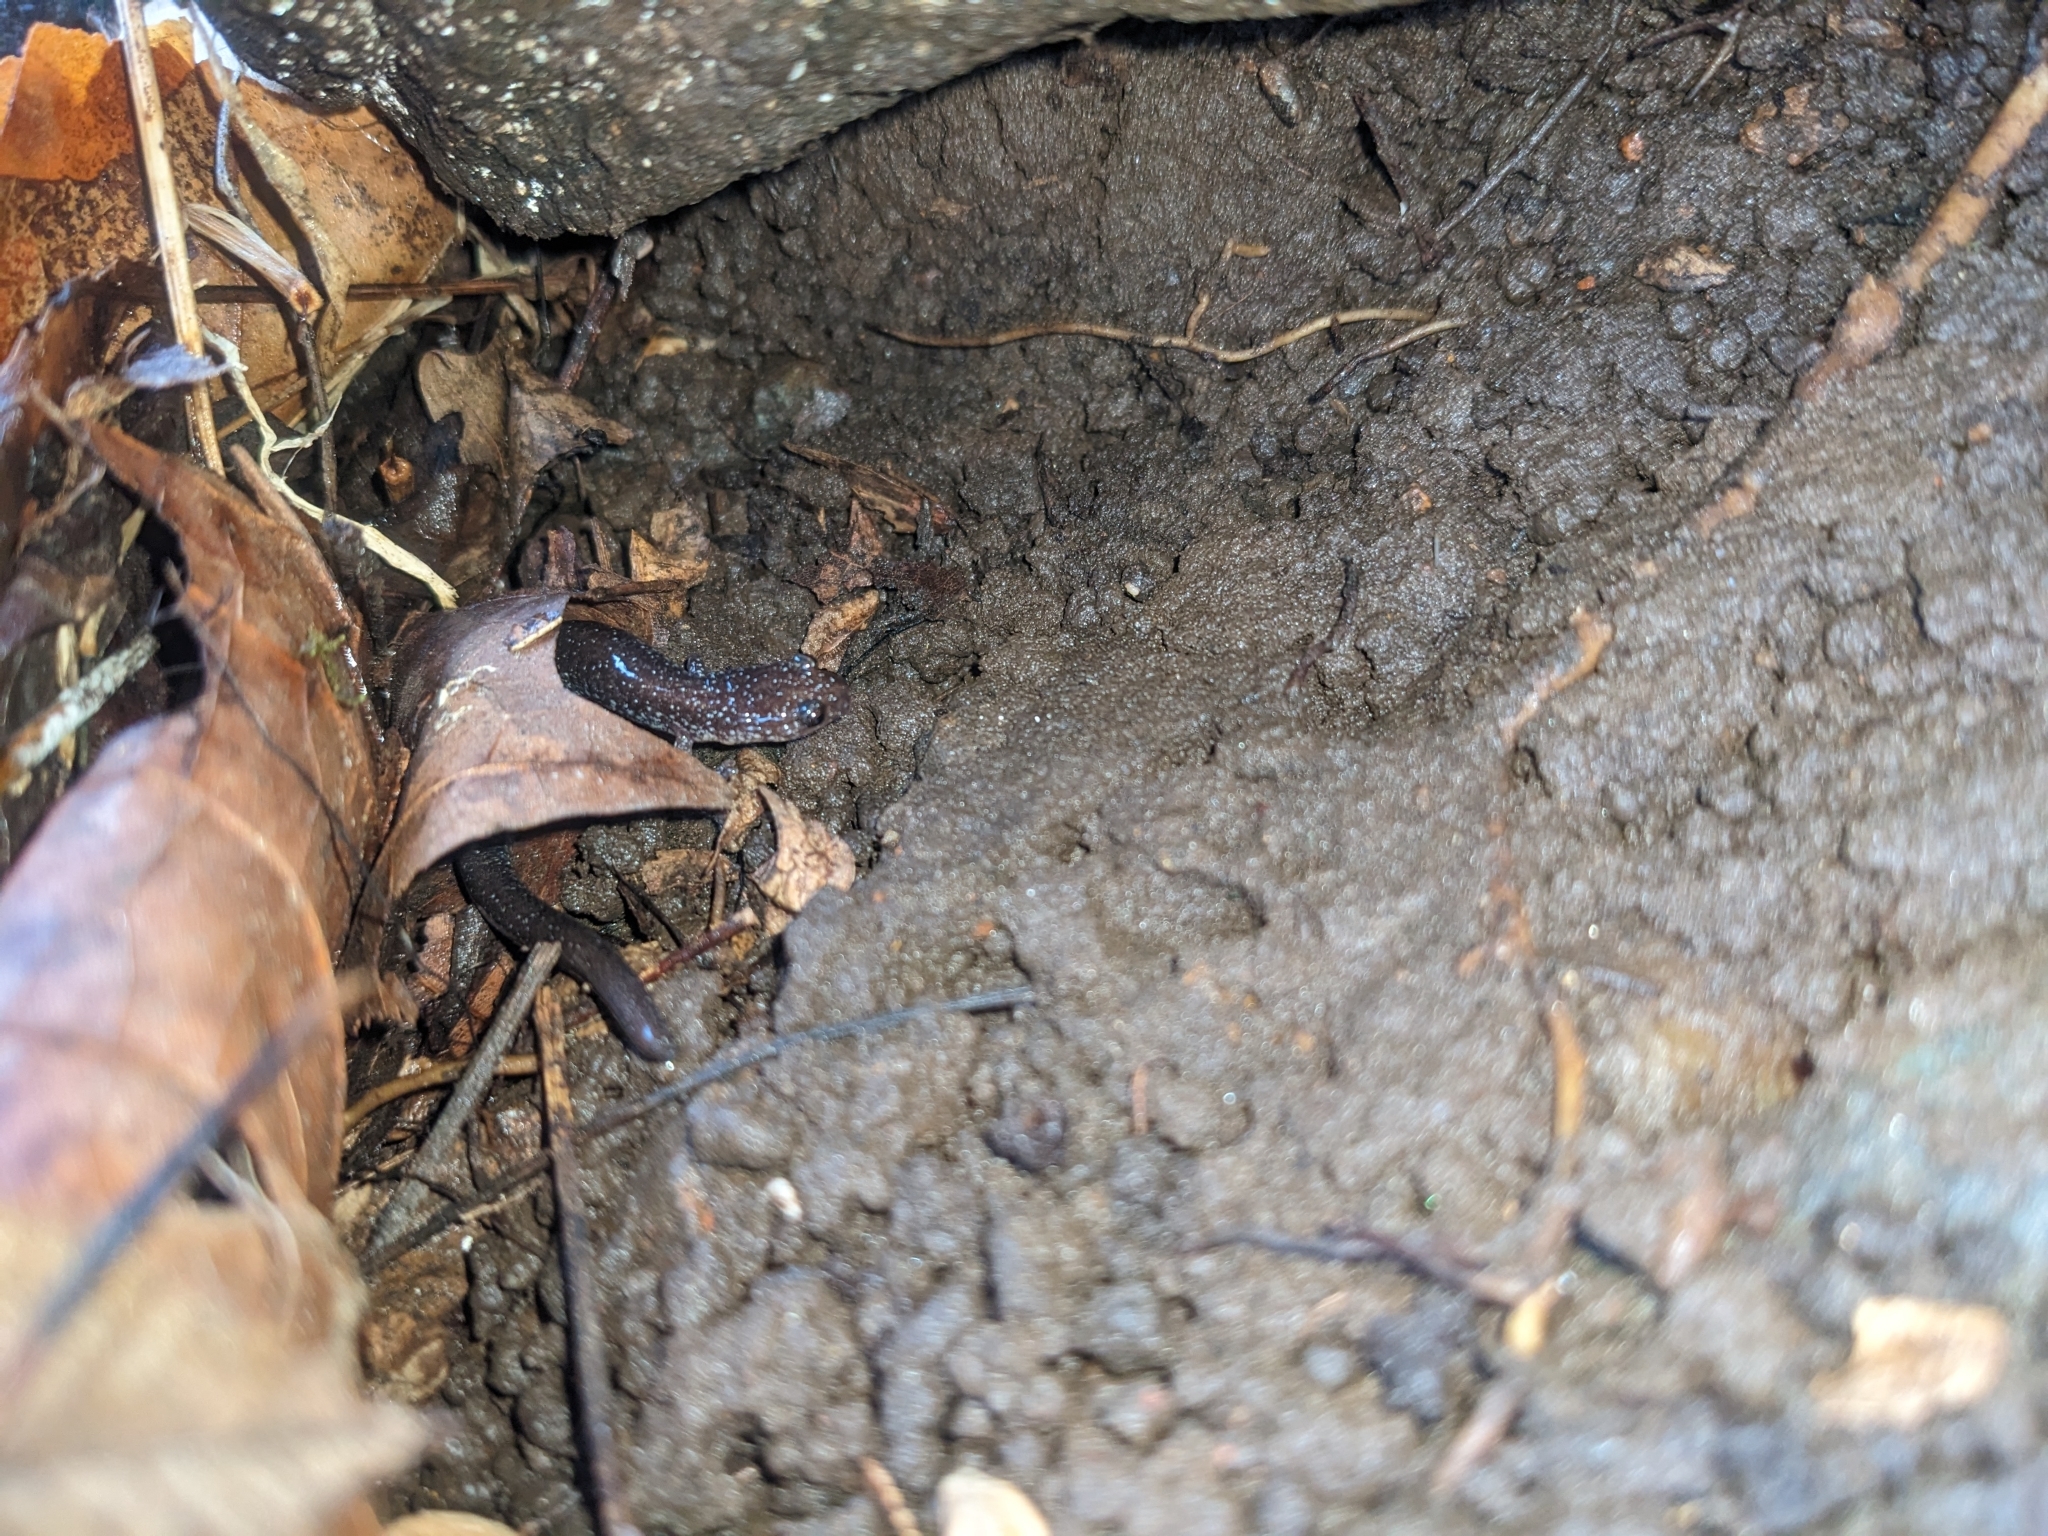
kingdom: Animalia
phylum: Chordata
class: Amphibia
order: Caudata
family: Plethodontidae
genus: Plethodon
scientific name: Plethodon cinereus
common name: Redback salamander
